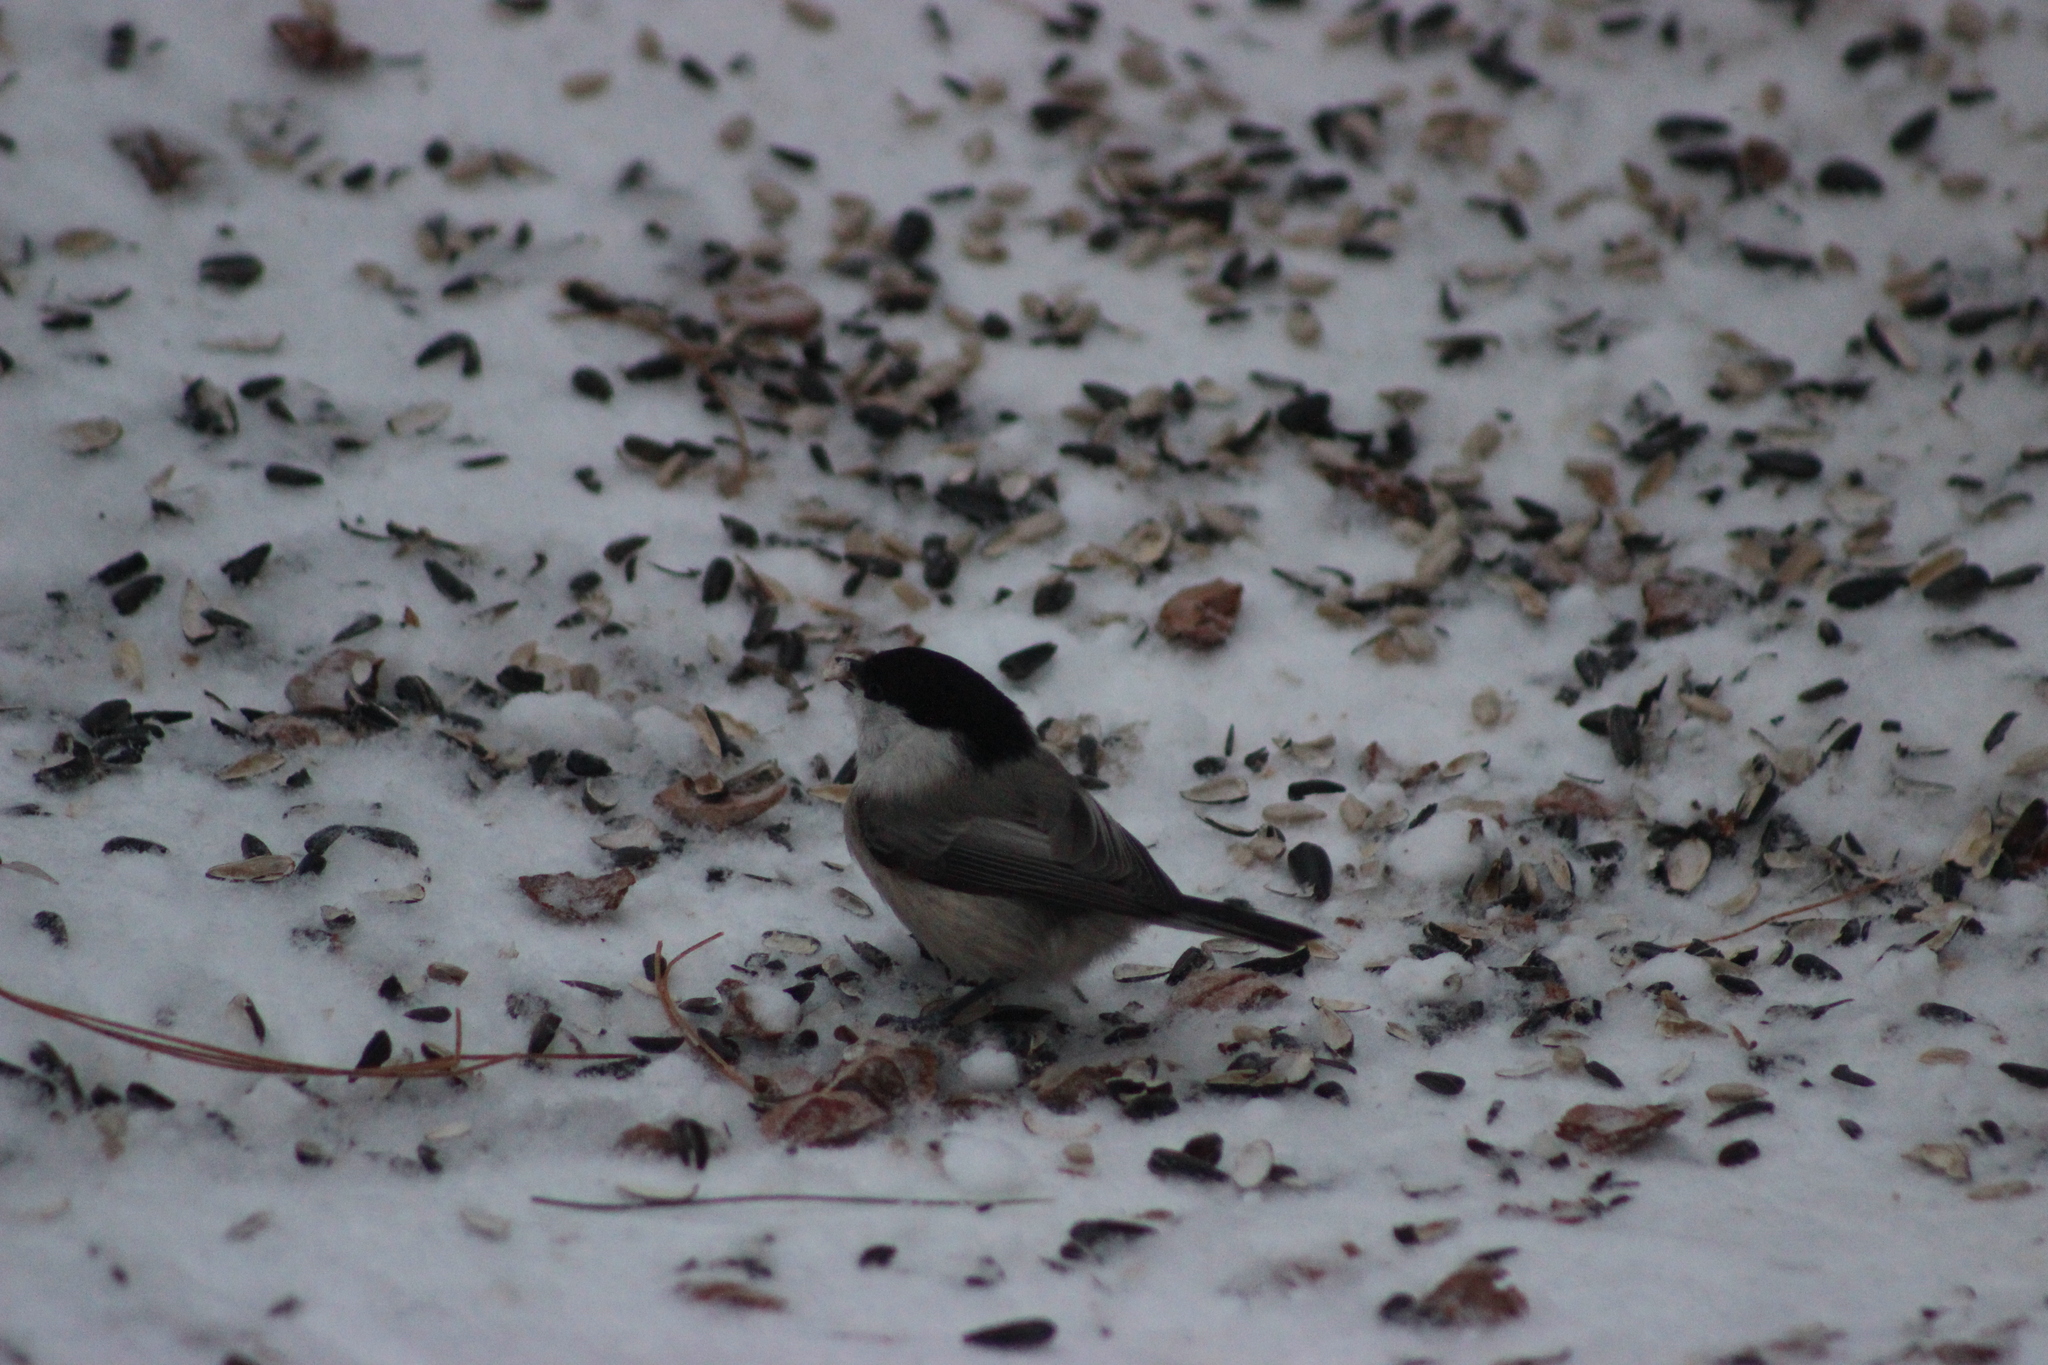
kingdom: Animalia
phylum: Chordata
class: Aves
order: Passeriformes
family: Paridae
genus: Poecile
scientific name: Poecile montanus
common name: Willow tit
